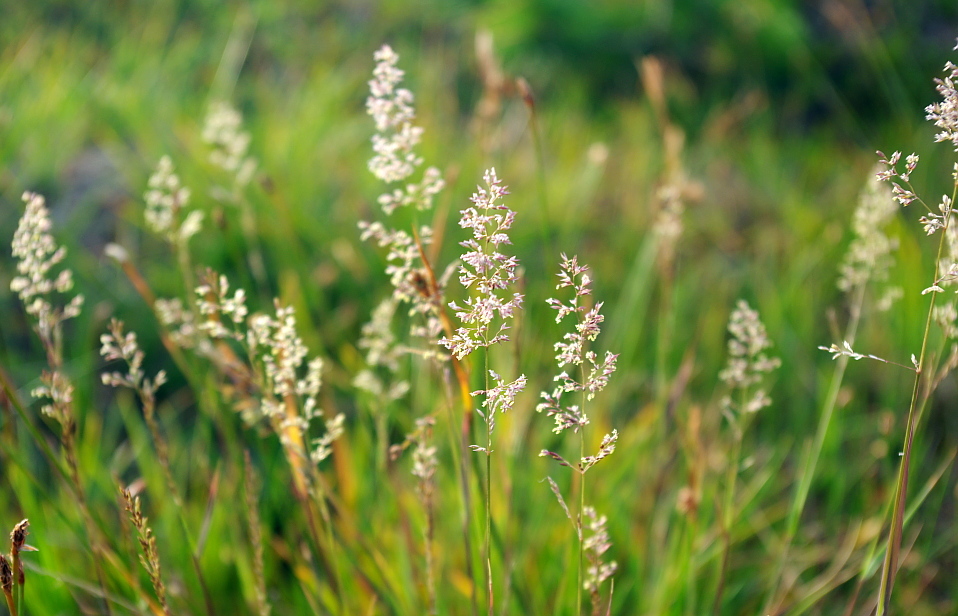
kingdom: Plantae
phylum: Tracheophyta
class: Liliopsida
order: Poales
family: Poaceae
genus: Agrostis
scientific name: Agrostis stolonifera
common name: Creeping bentgrass
